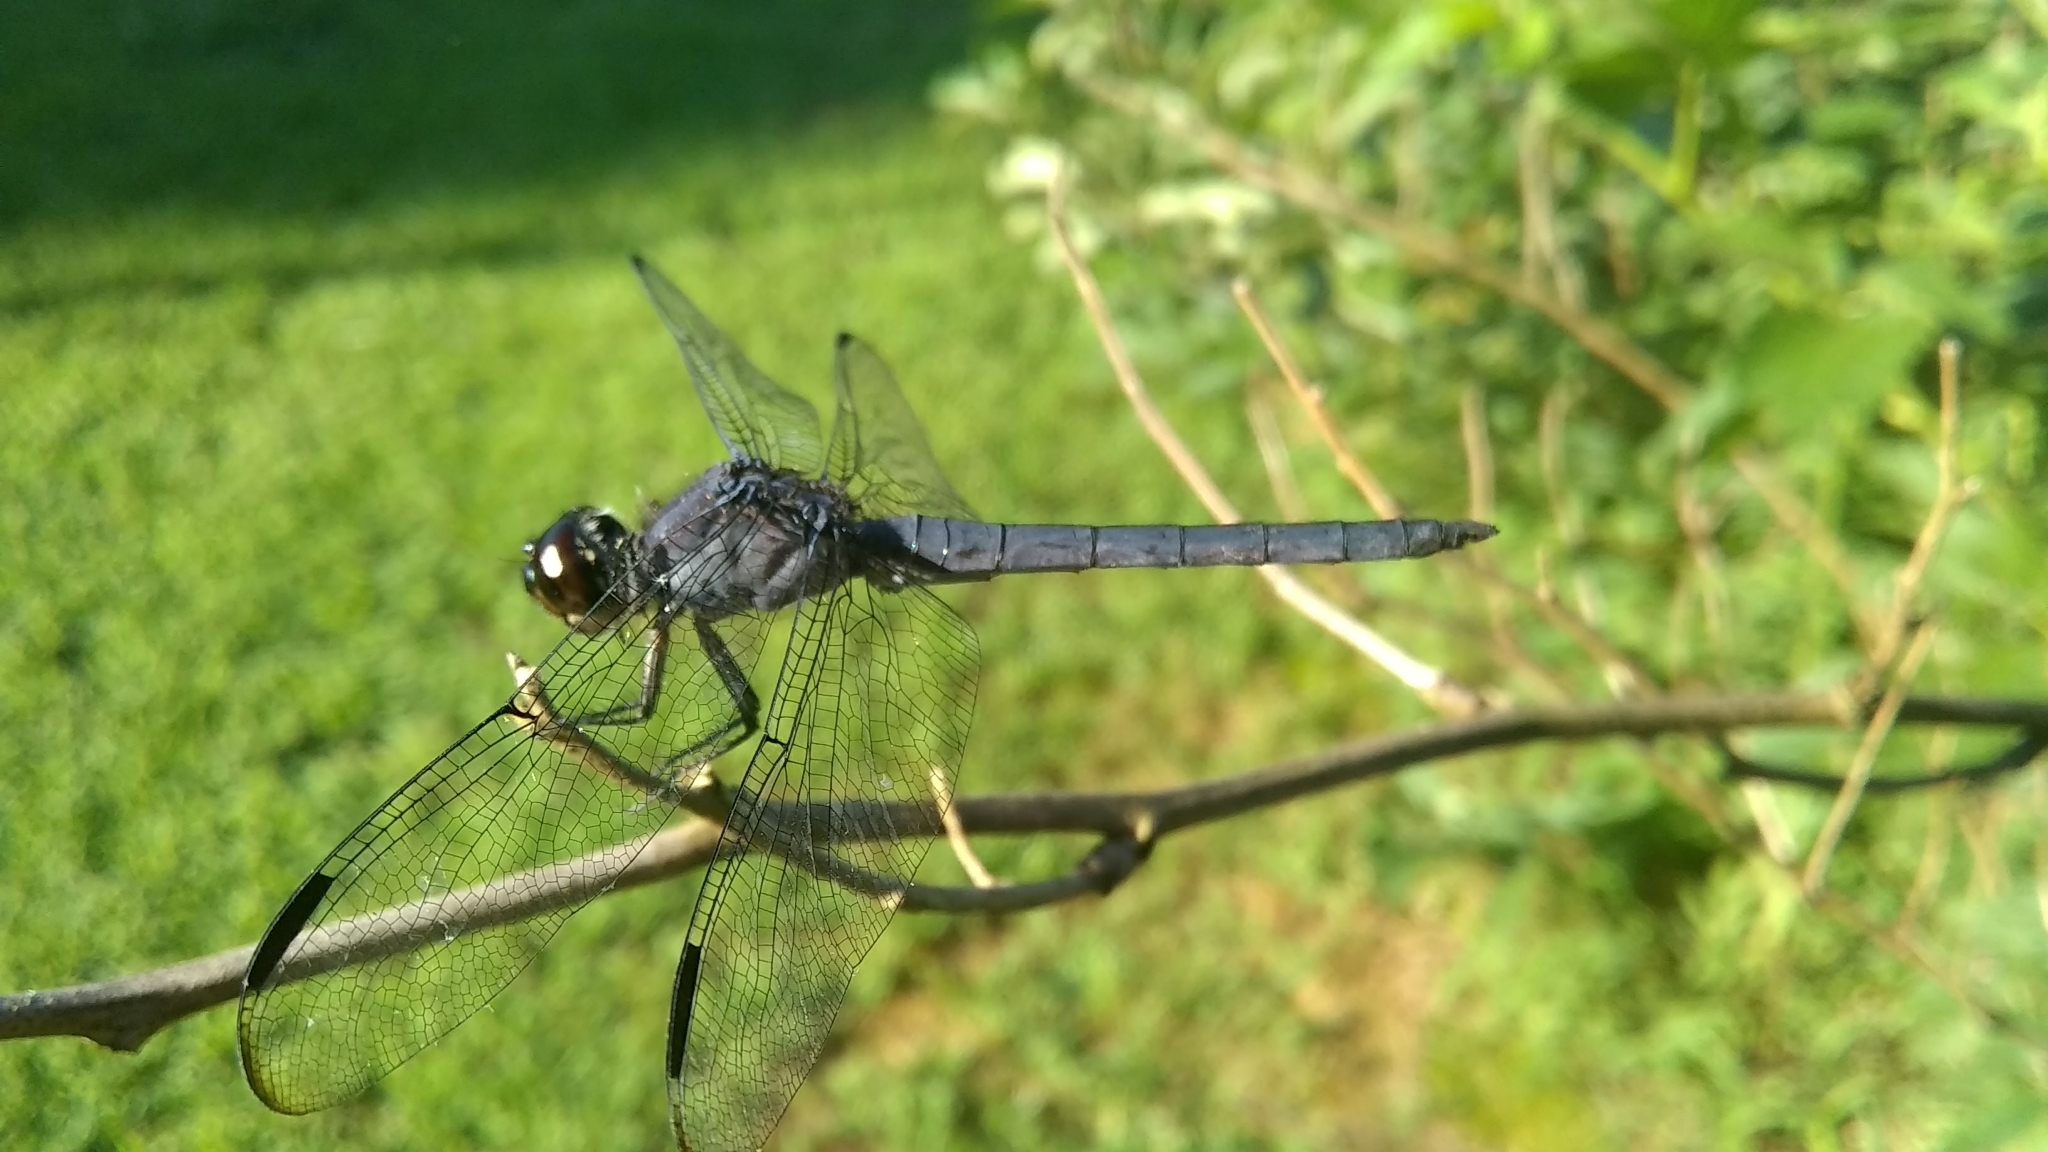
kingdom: Animalia
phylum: Arthropoda
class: Insecta
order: Odonata
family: Libellulidae
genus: Libellula
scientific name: Libellula incesta
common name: Slaty skimmer
